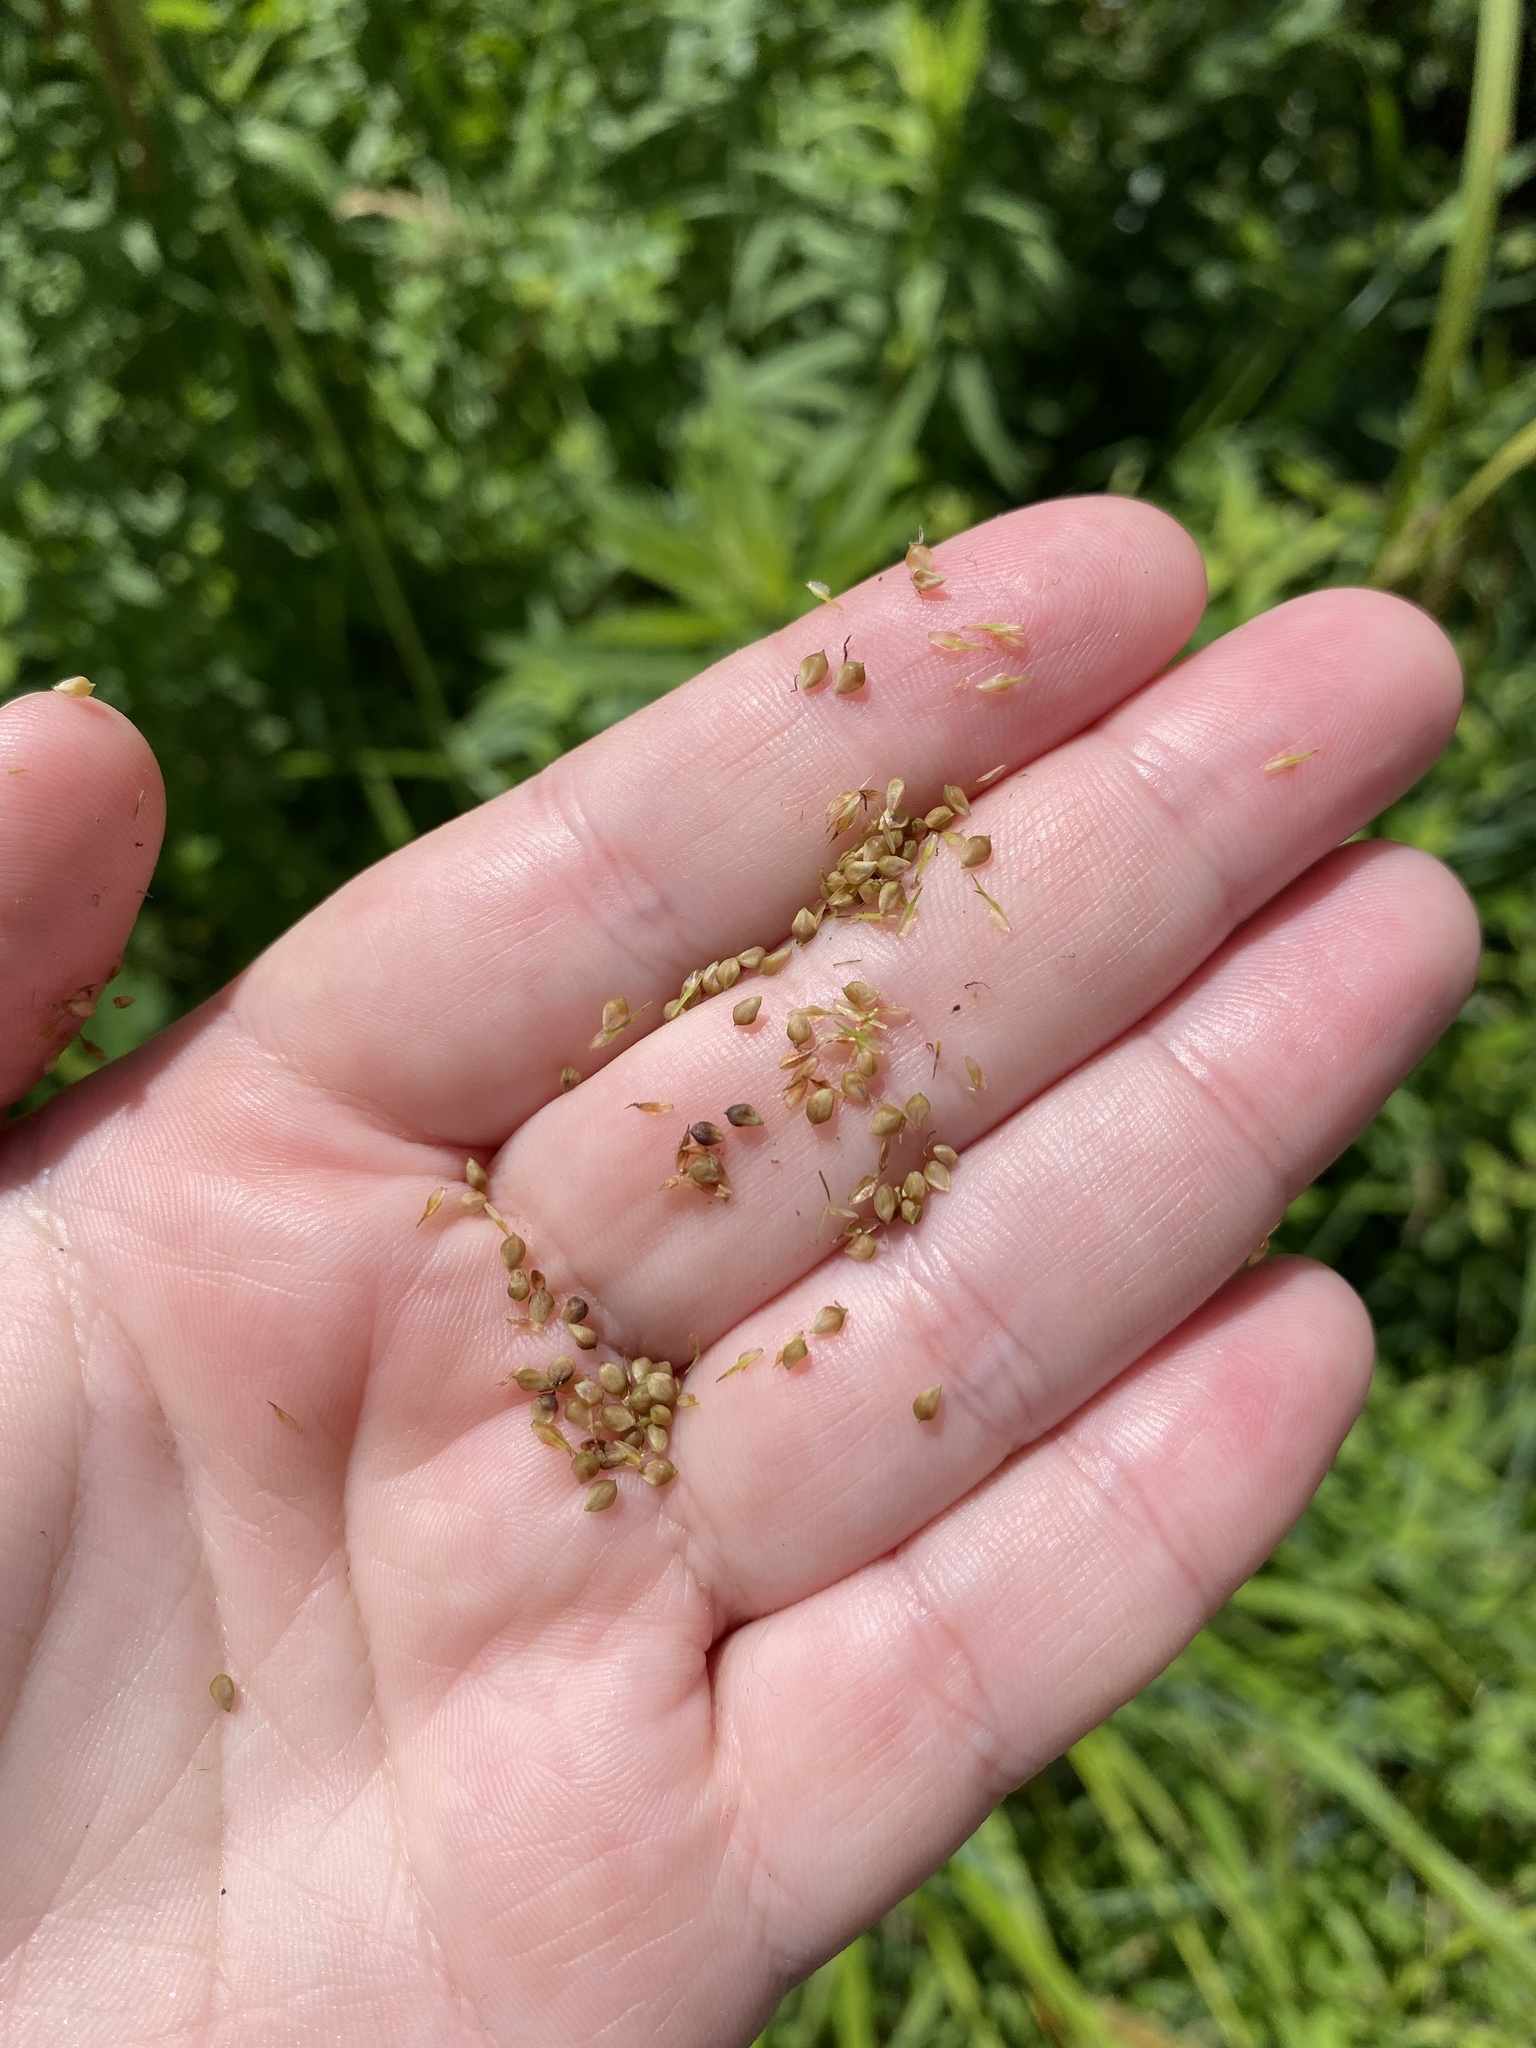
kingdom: Plantae
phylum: Tracheophyta
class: Liliopsida
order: Poales
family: Cyperaceae
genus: Carex
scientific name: Carex crinita
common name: Fringed sedge
